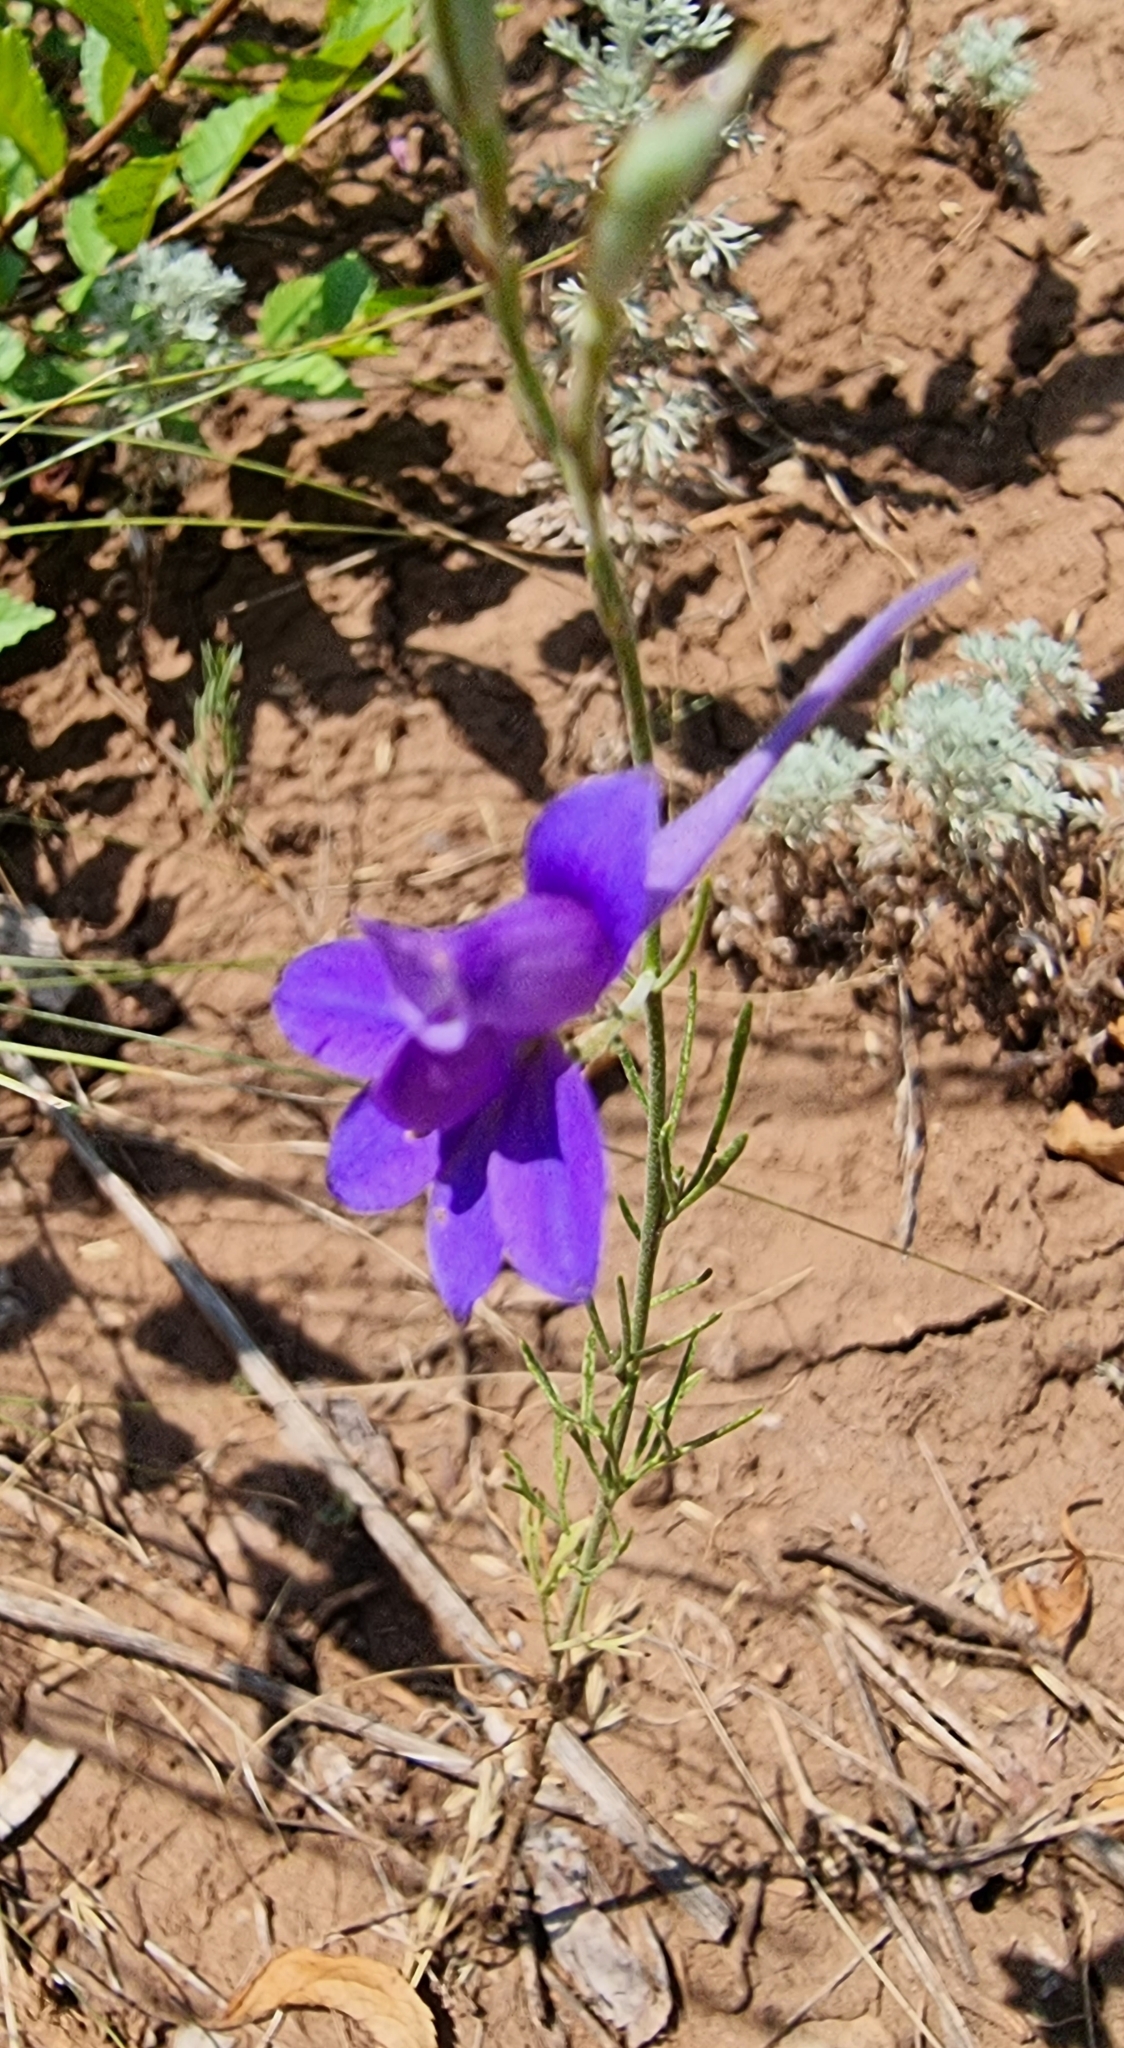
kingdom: Plantae
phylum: Tracheophyta
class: Magnoliopsida
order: Ranunculales
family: Ranunculaceae
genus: Delphinium
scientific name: Delphinium consolida
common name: Branching larkspur
